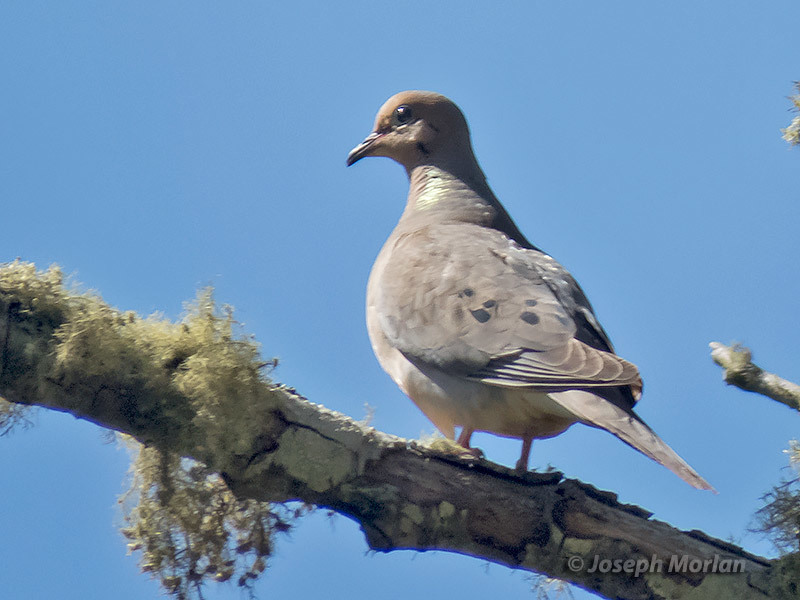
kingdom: Animalia
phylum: Chordata
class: Aves
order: Columbiformes
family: Columbidae
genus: Zenaida
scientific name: Zenaida macroura
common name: Mourning dove
